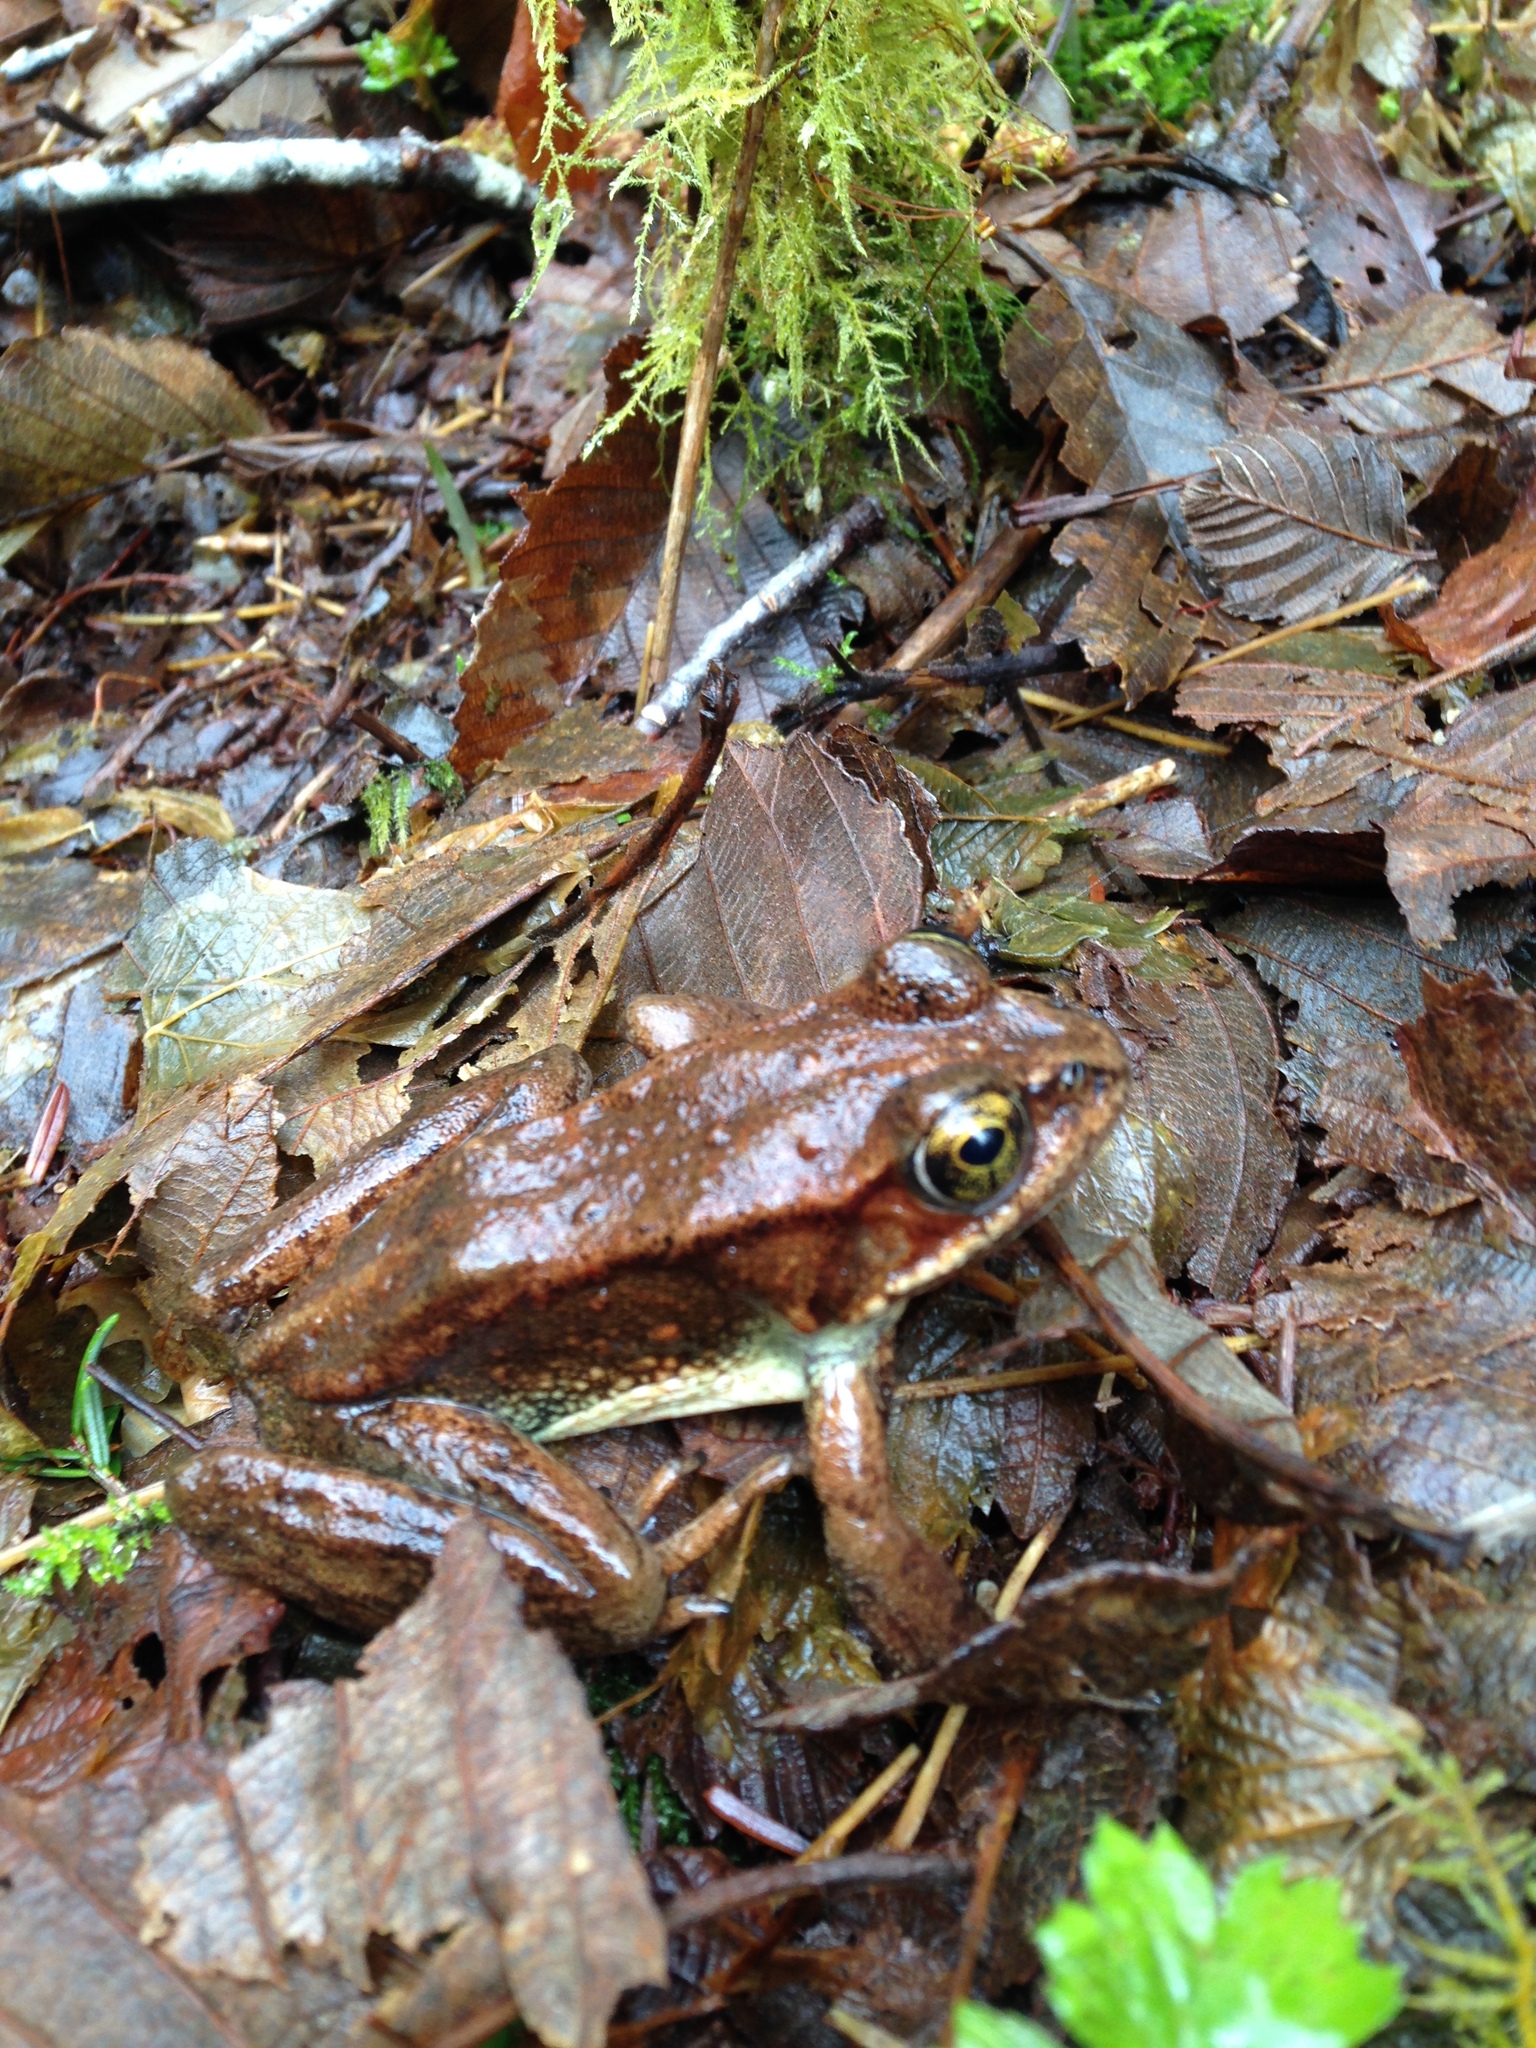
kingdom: Animalia
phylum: Chordata
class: Amphibia
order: Anura
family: Ranidae
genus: Rana
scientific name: Rana cascadae
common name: Cascades frog
